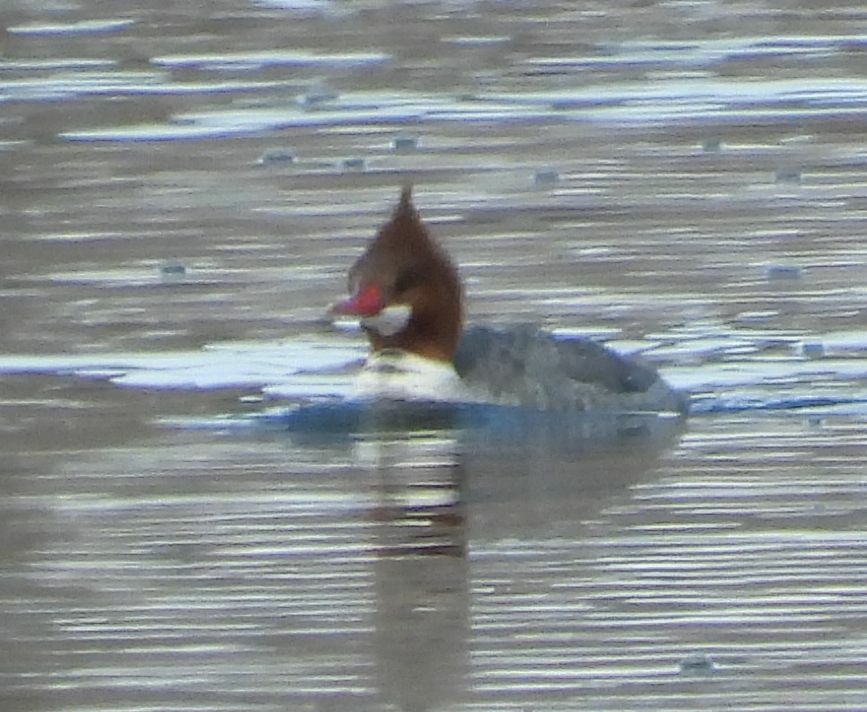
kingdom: Animalia
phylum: Chordata
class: Aves
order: Anseriformes
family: Anatidae
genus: Mergus
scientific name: Mergus merganser
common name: Common merganser
